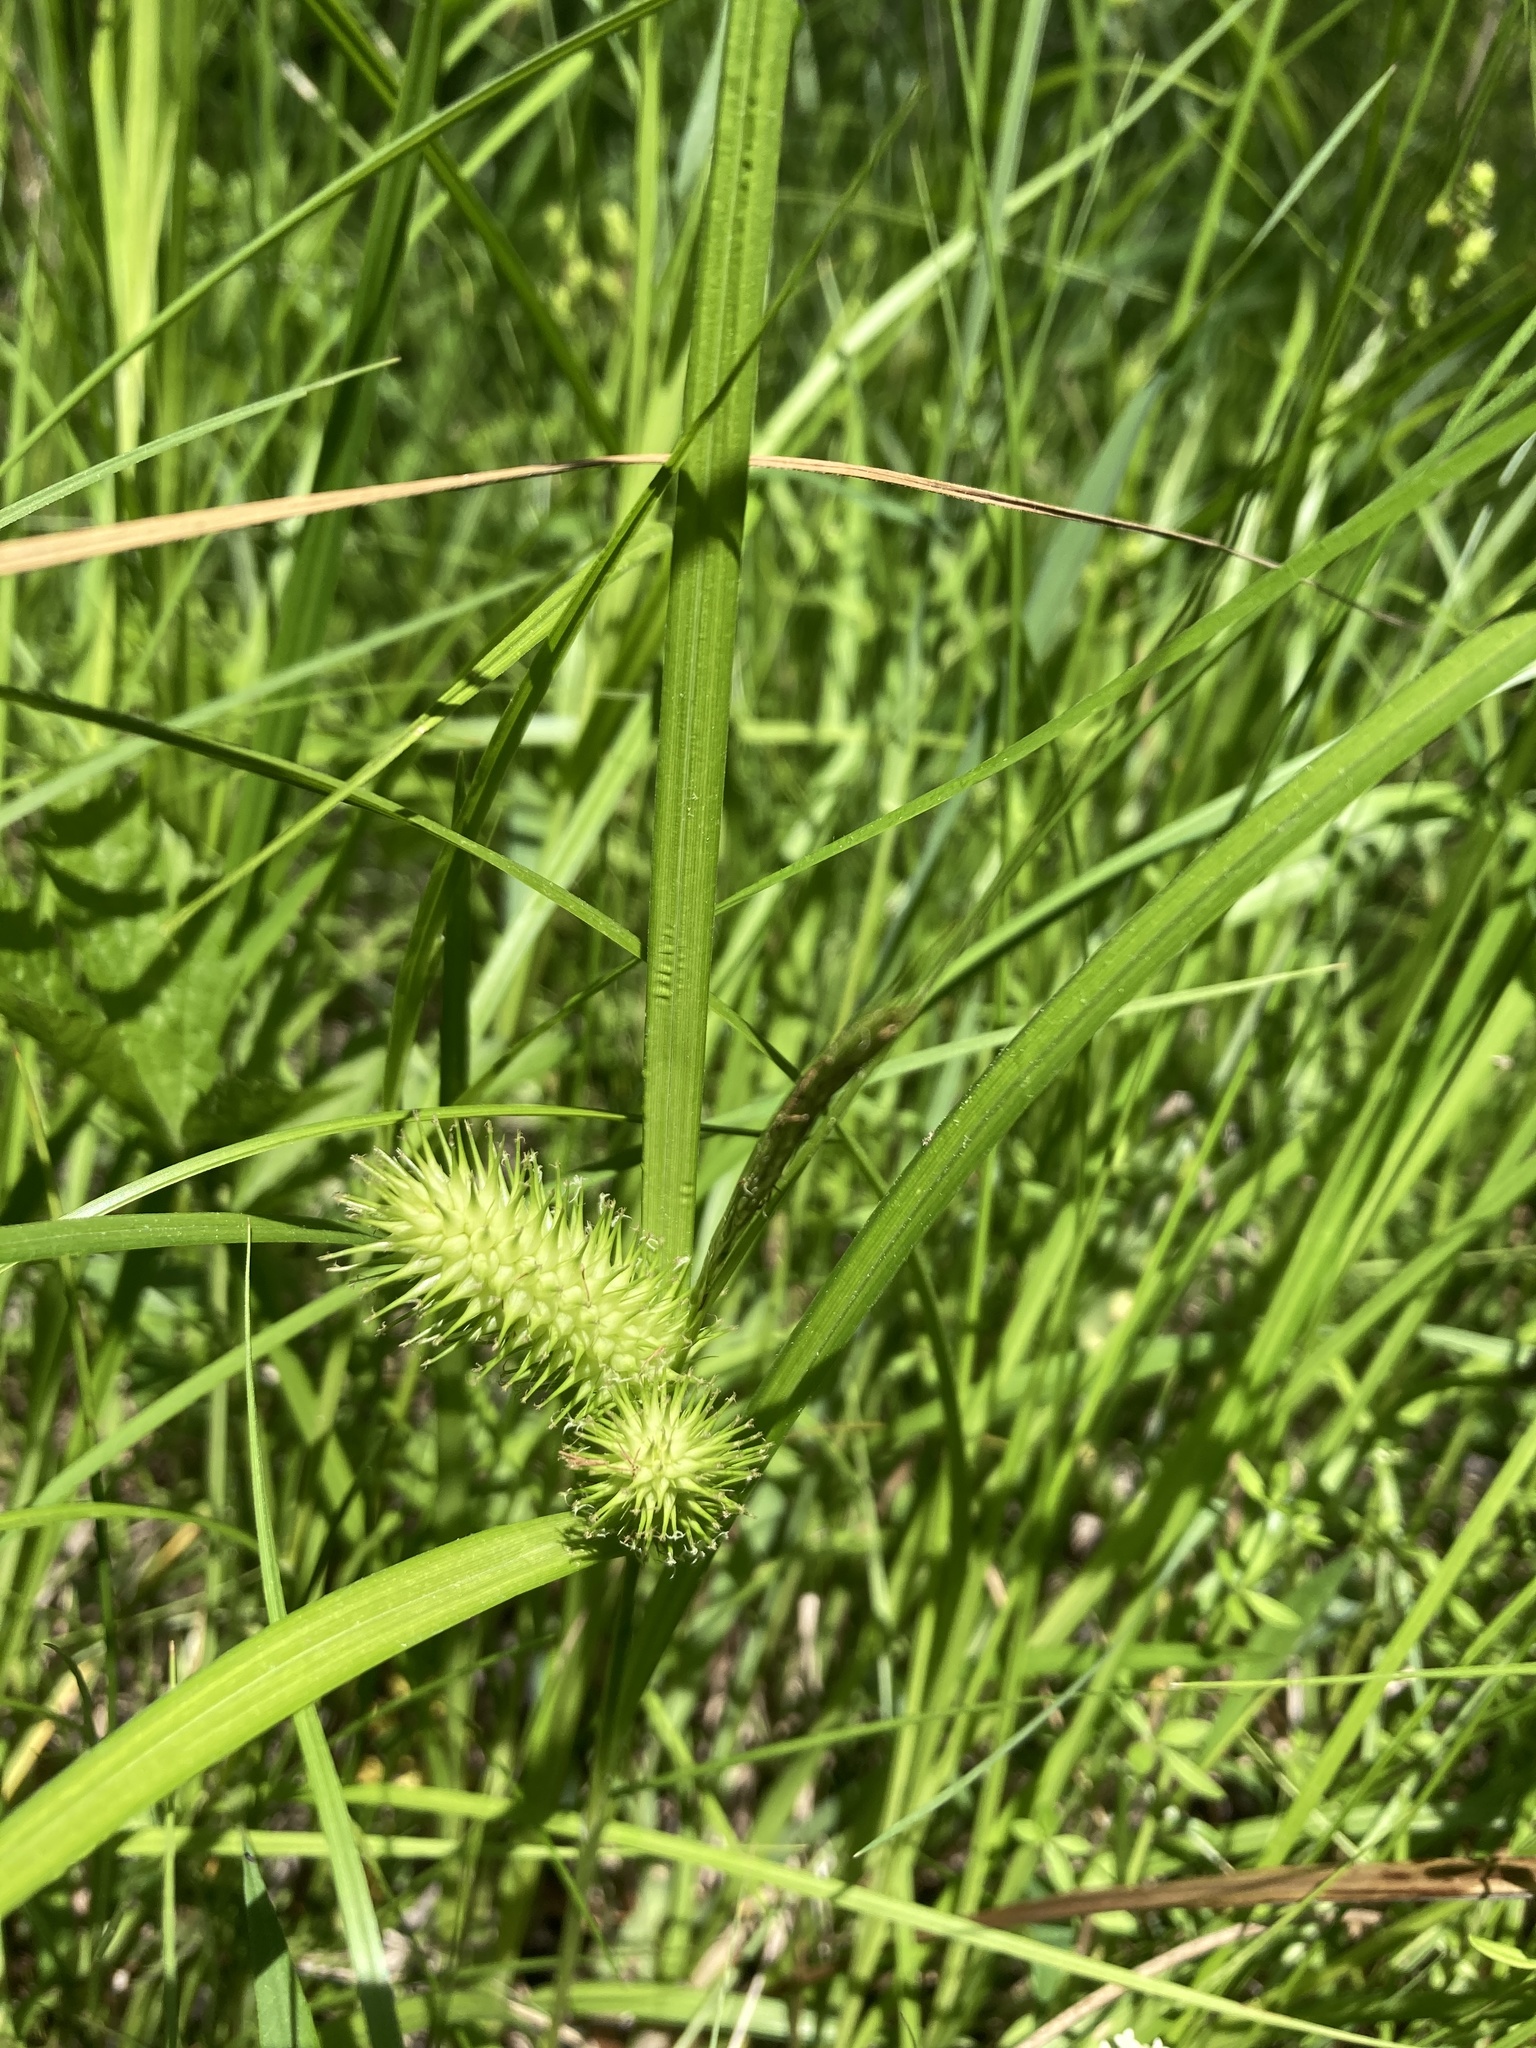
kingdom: Plantae
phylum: Tracheophyta
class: Liliopsida
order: Poales
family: Cyperaceae
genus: Carex
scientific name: Carex lurida
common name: Sallow sedge
